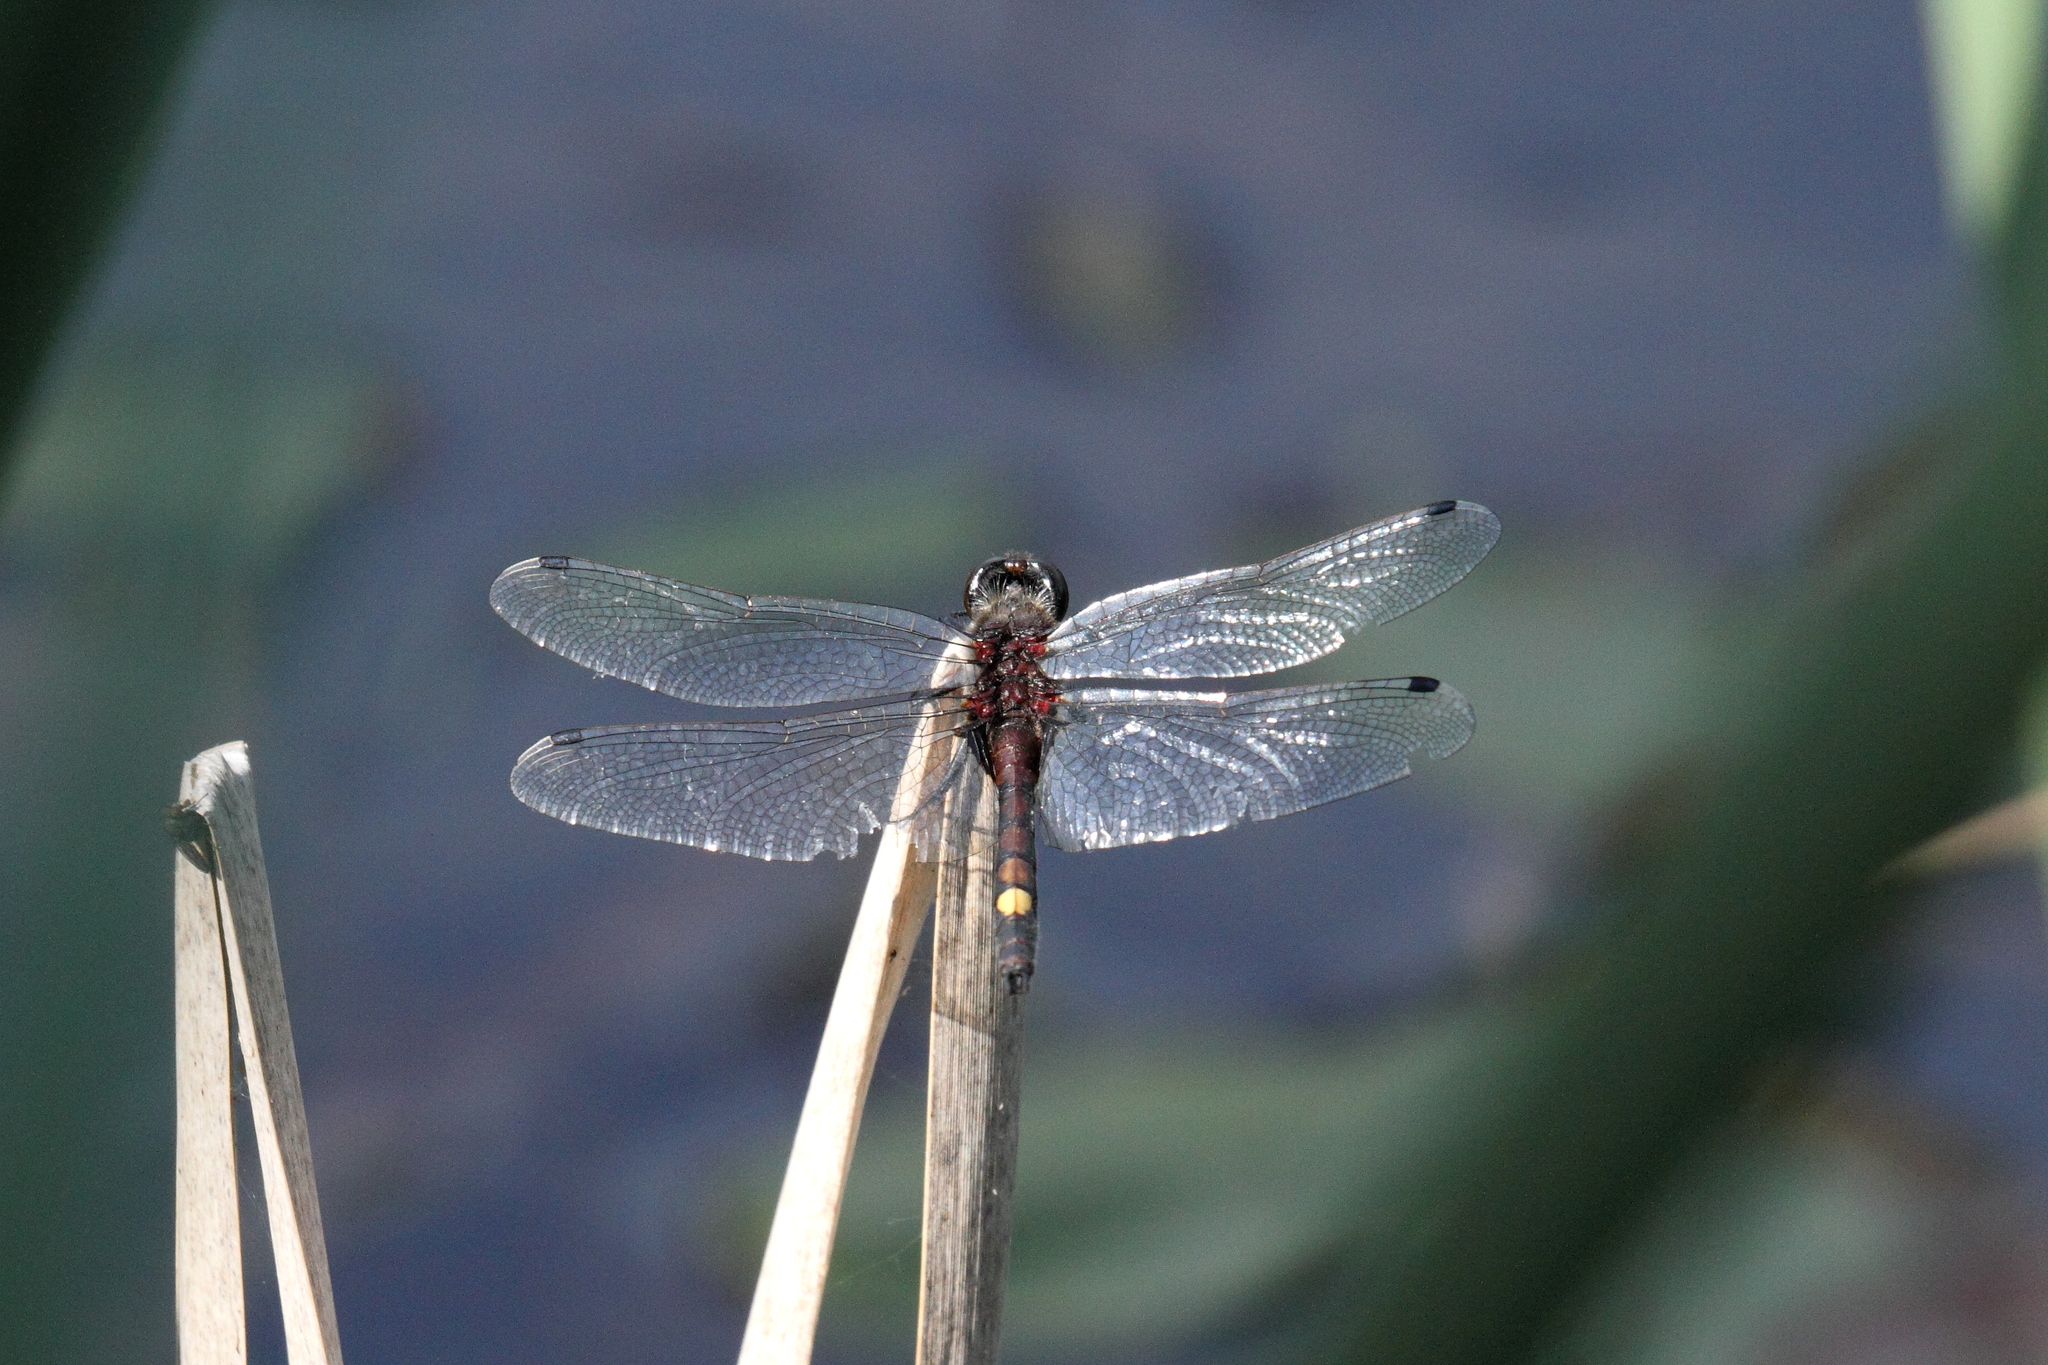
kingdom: Animalia
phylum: Arthropoda
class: Insecta
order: Odonata
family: Libellulidae
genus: Leucorrhinia
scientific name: Leucorrhinia pectoralis
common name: Yellow-spotted whiteface
